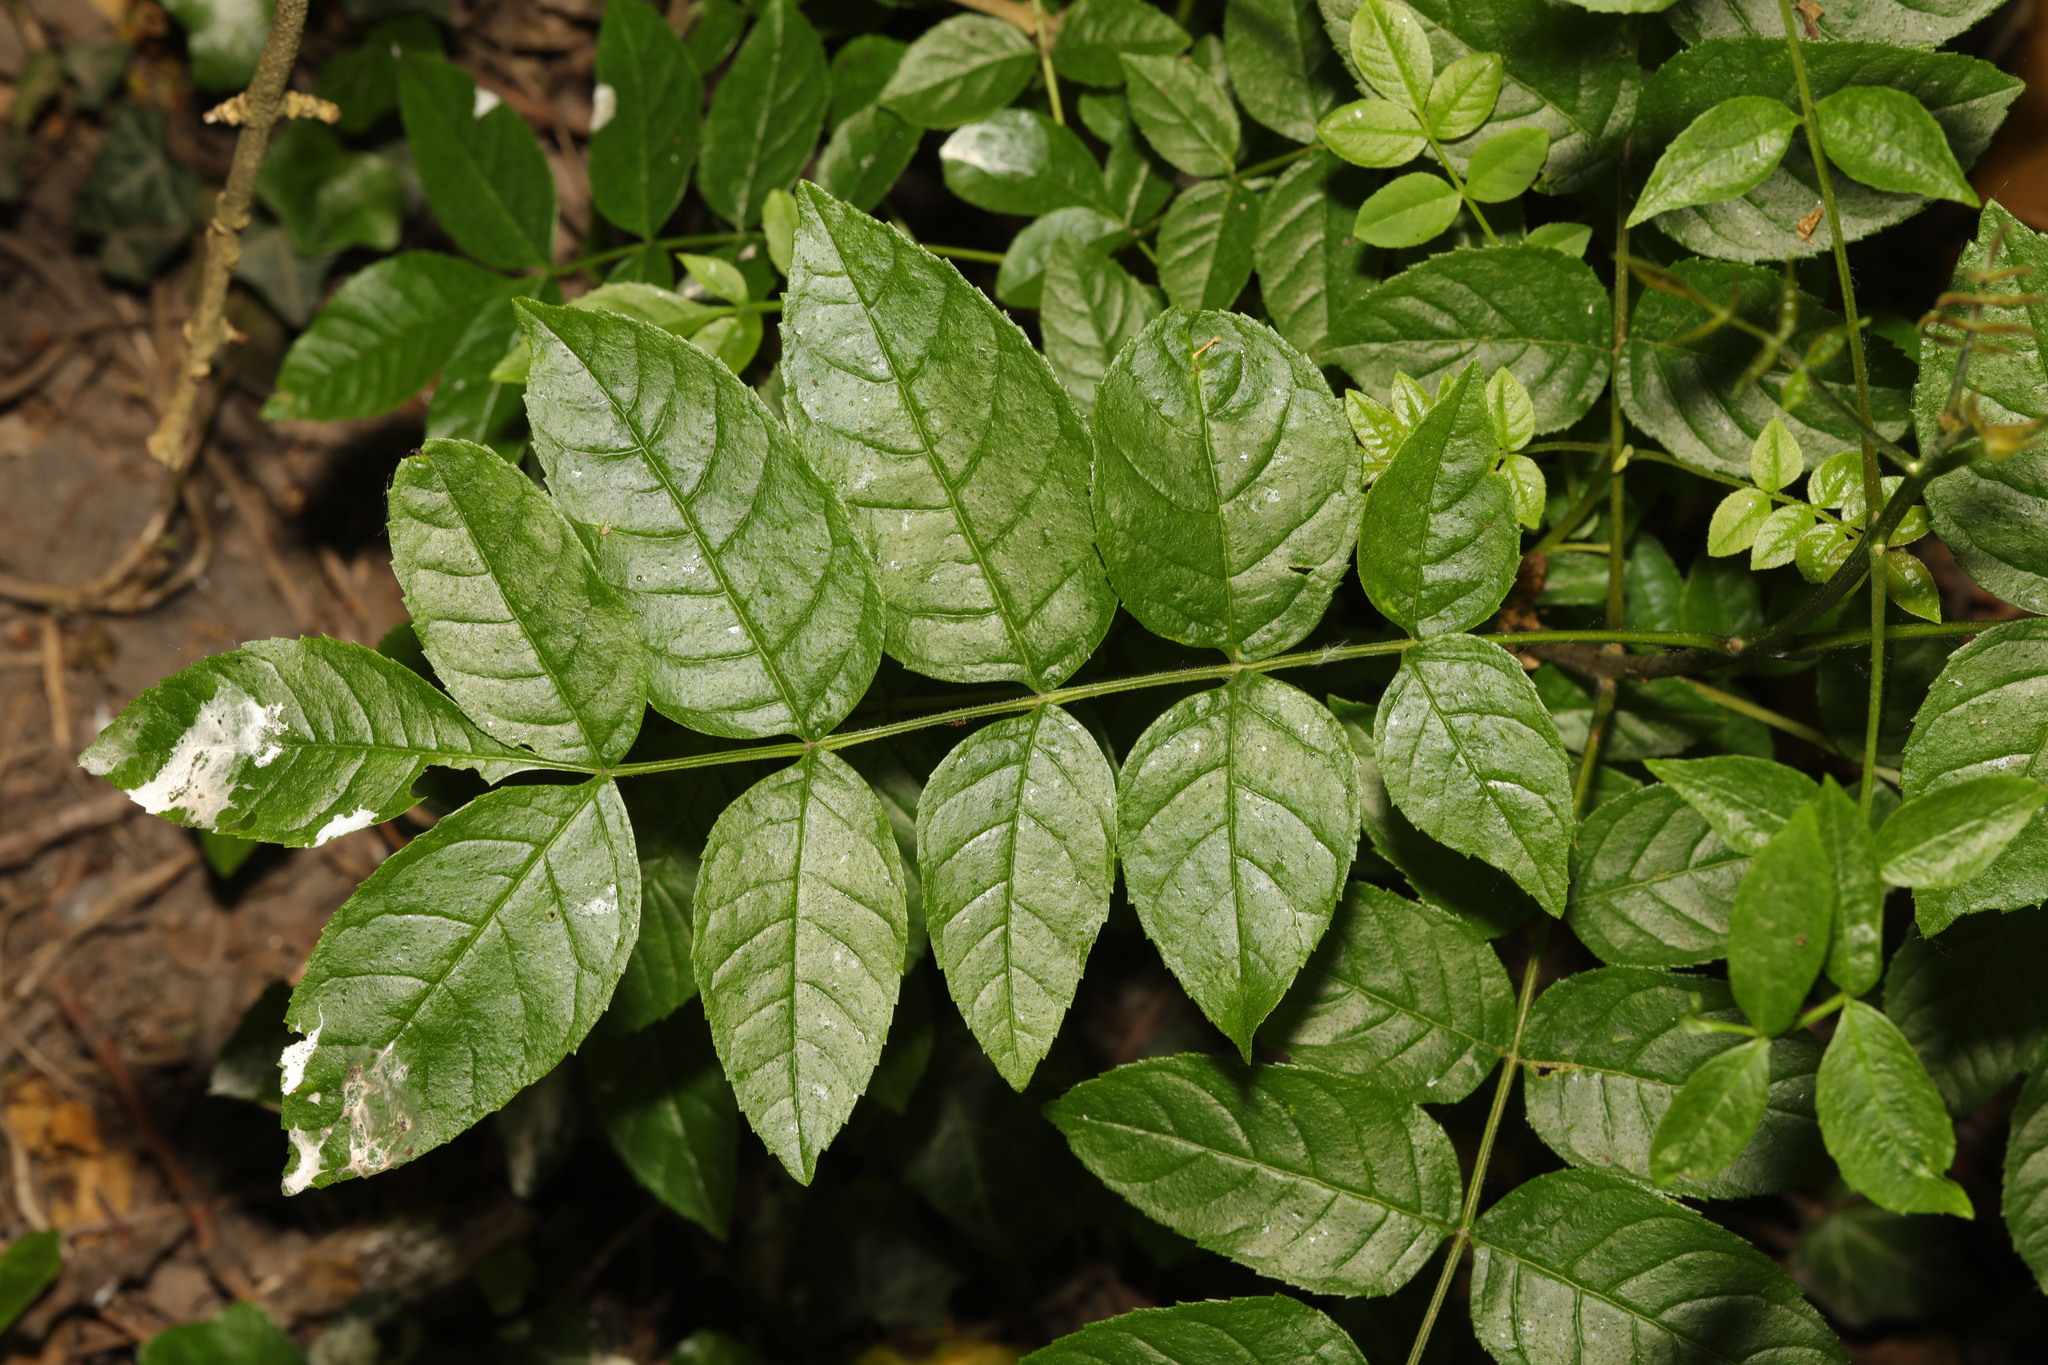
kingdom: Plantae
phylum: Tracheophyta
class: Magnoliopsida
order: Lamiales
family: Oleaceae
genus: Fraxinus
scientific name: Fraxinus excelsior
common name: European ash
